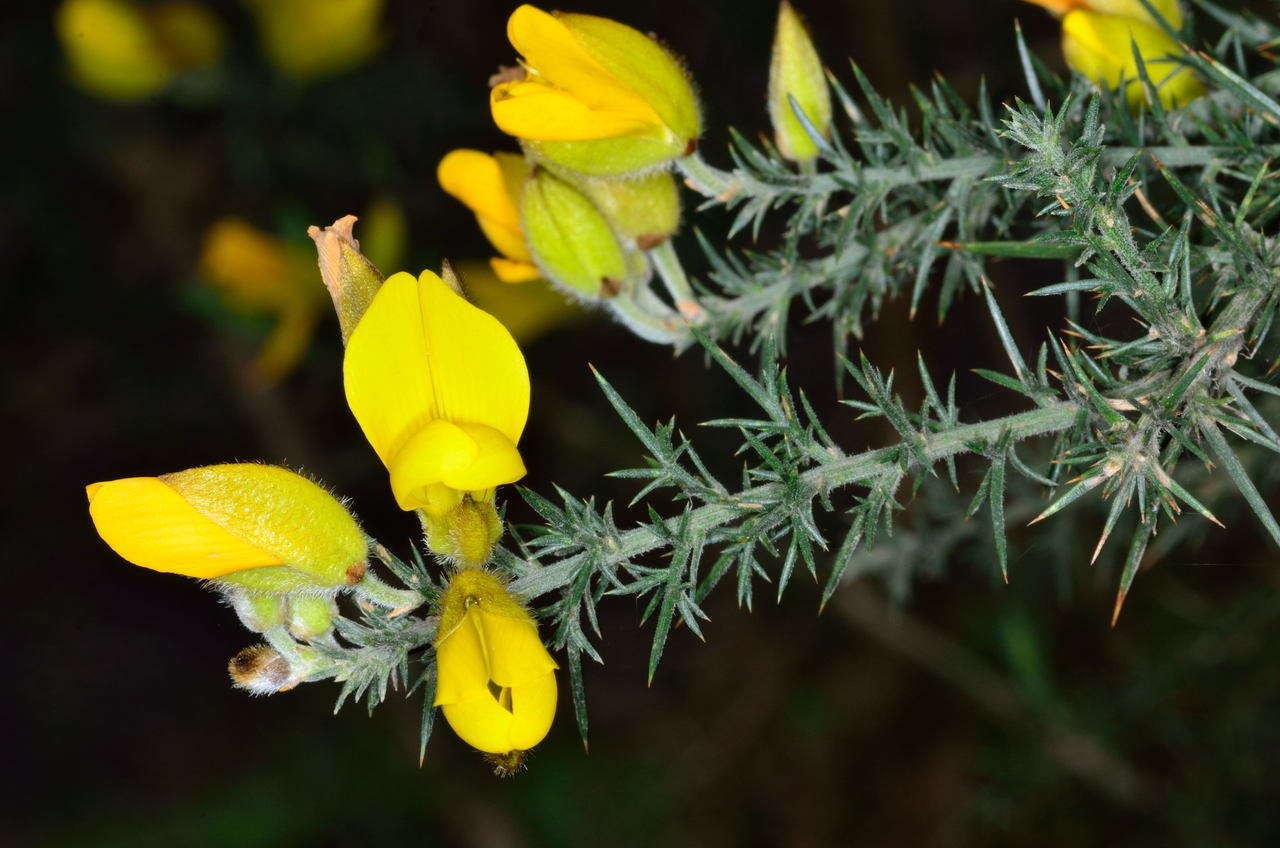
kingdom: Plantae
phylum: Tracheophyta
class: Magnoliopsida
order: Fabales
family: Fabaceae
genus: Ulex
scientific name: Ulex europaeus
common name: Common gorse
